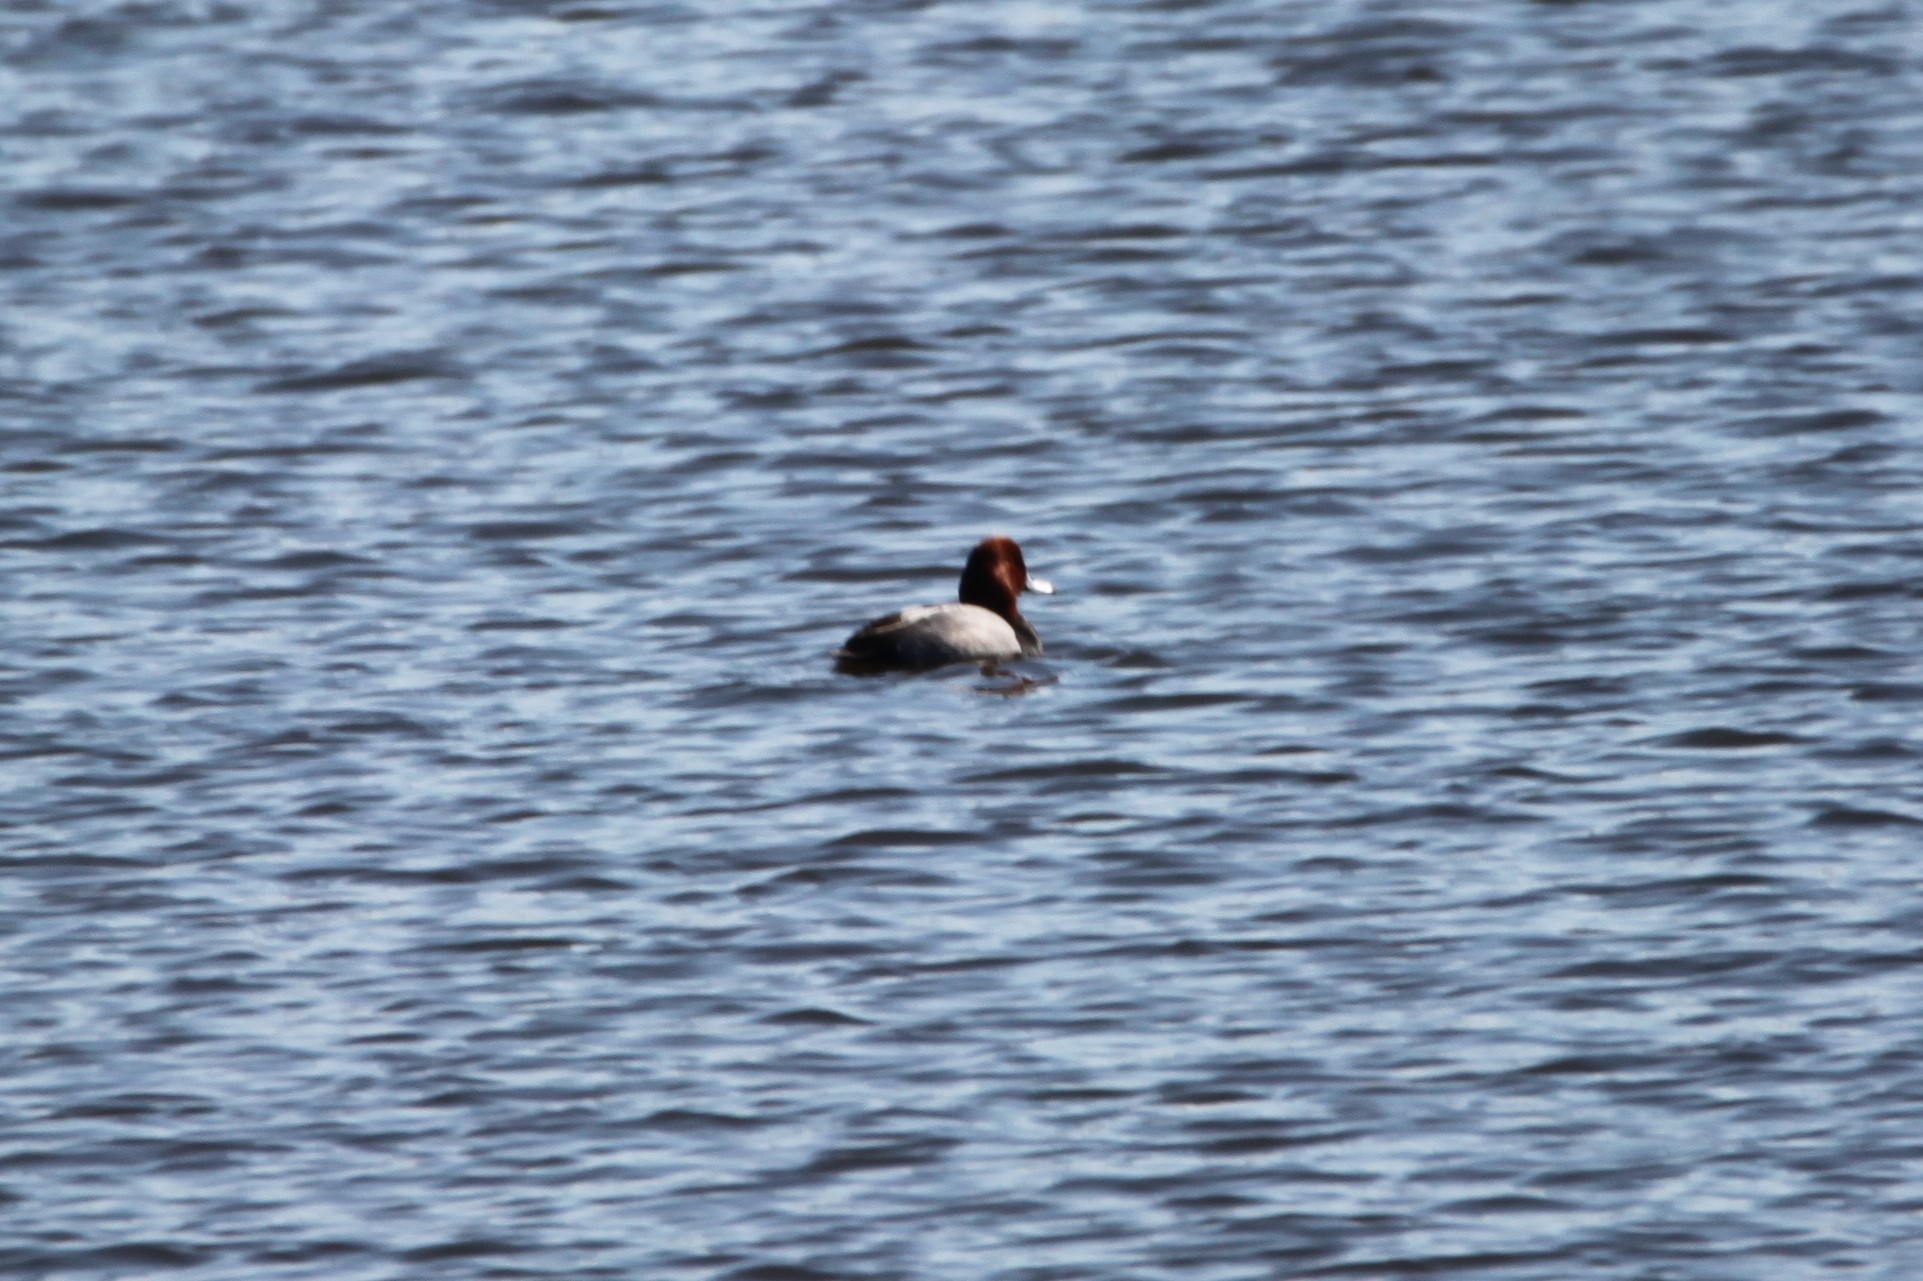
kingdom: Animalia
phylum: Chordata
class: Aves
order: Anseriformes
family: Anatidae
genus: Aythya
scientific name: Aythya americana
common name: Redhead
